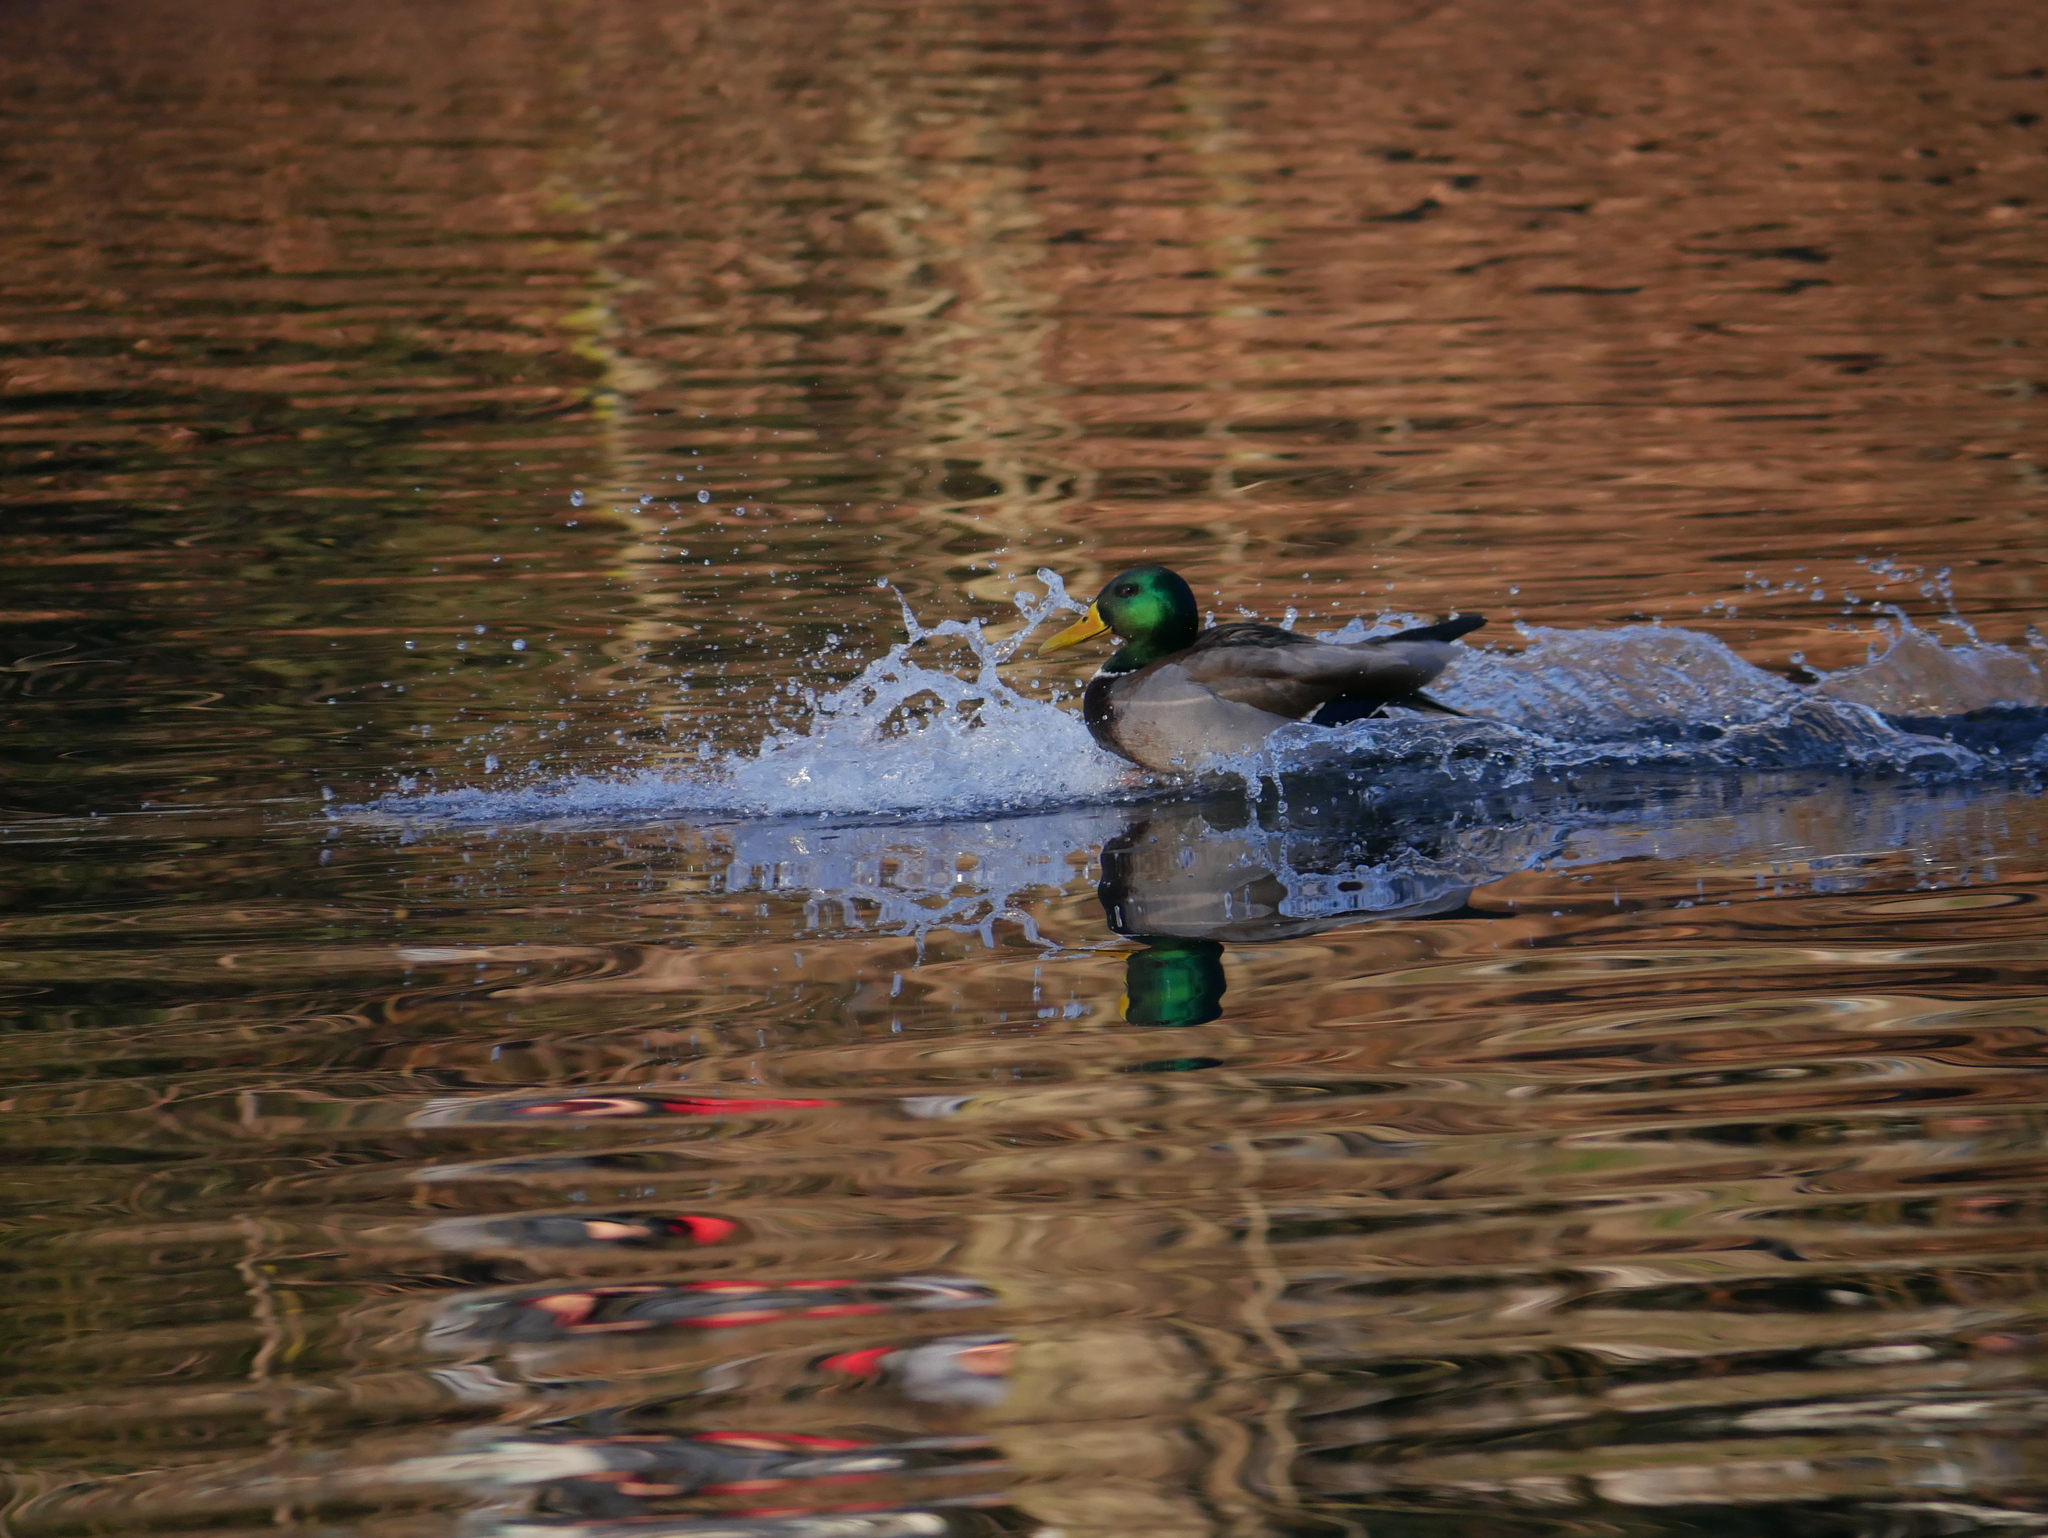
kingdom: Animalia
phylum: Chordata
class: Aves
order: Anseriformes
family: Anatidae
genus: Anas
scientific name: Anas platyrhynchos
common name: Mallard
